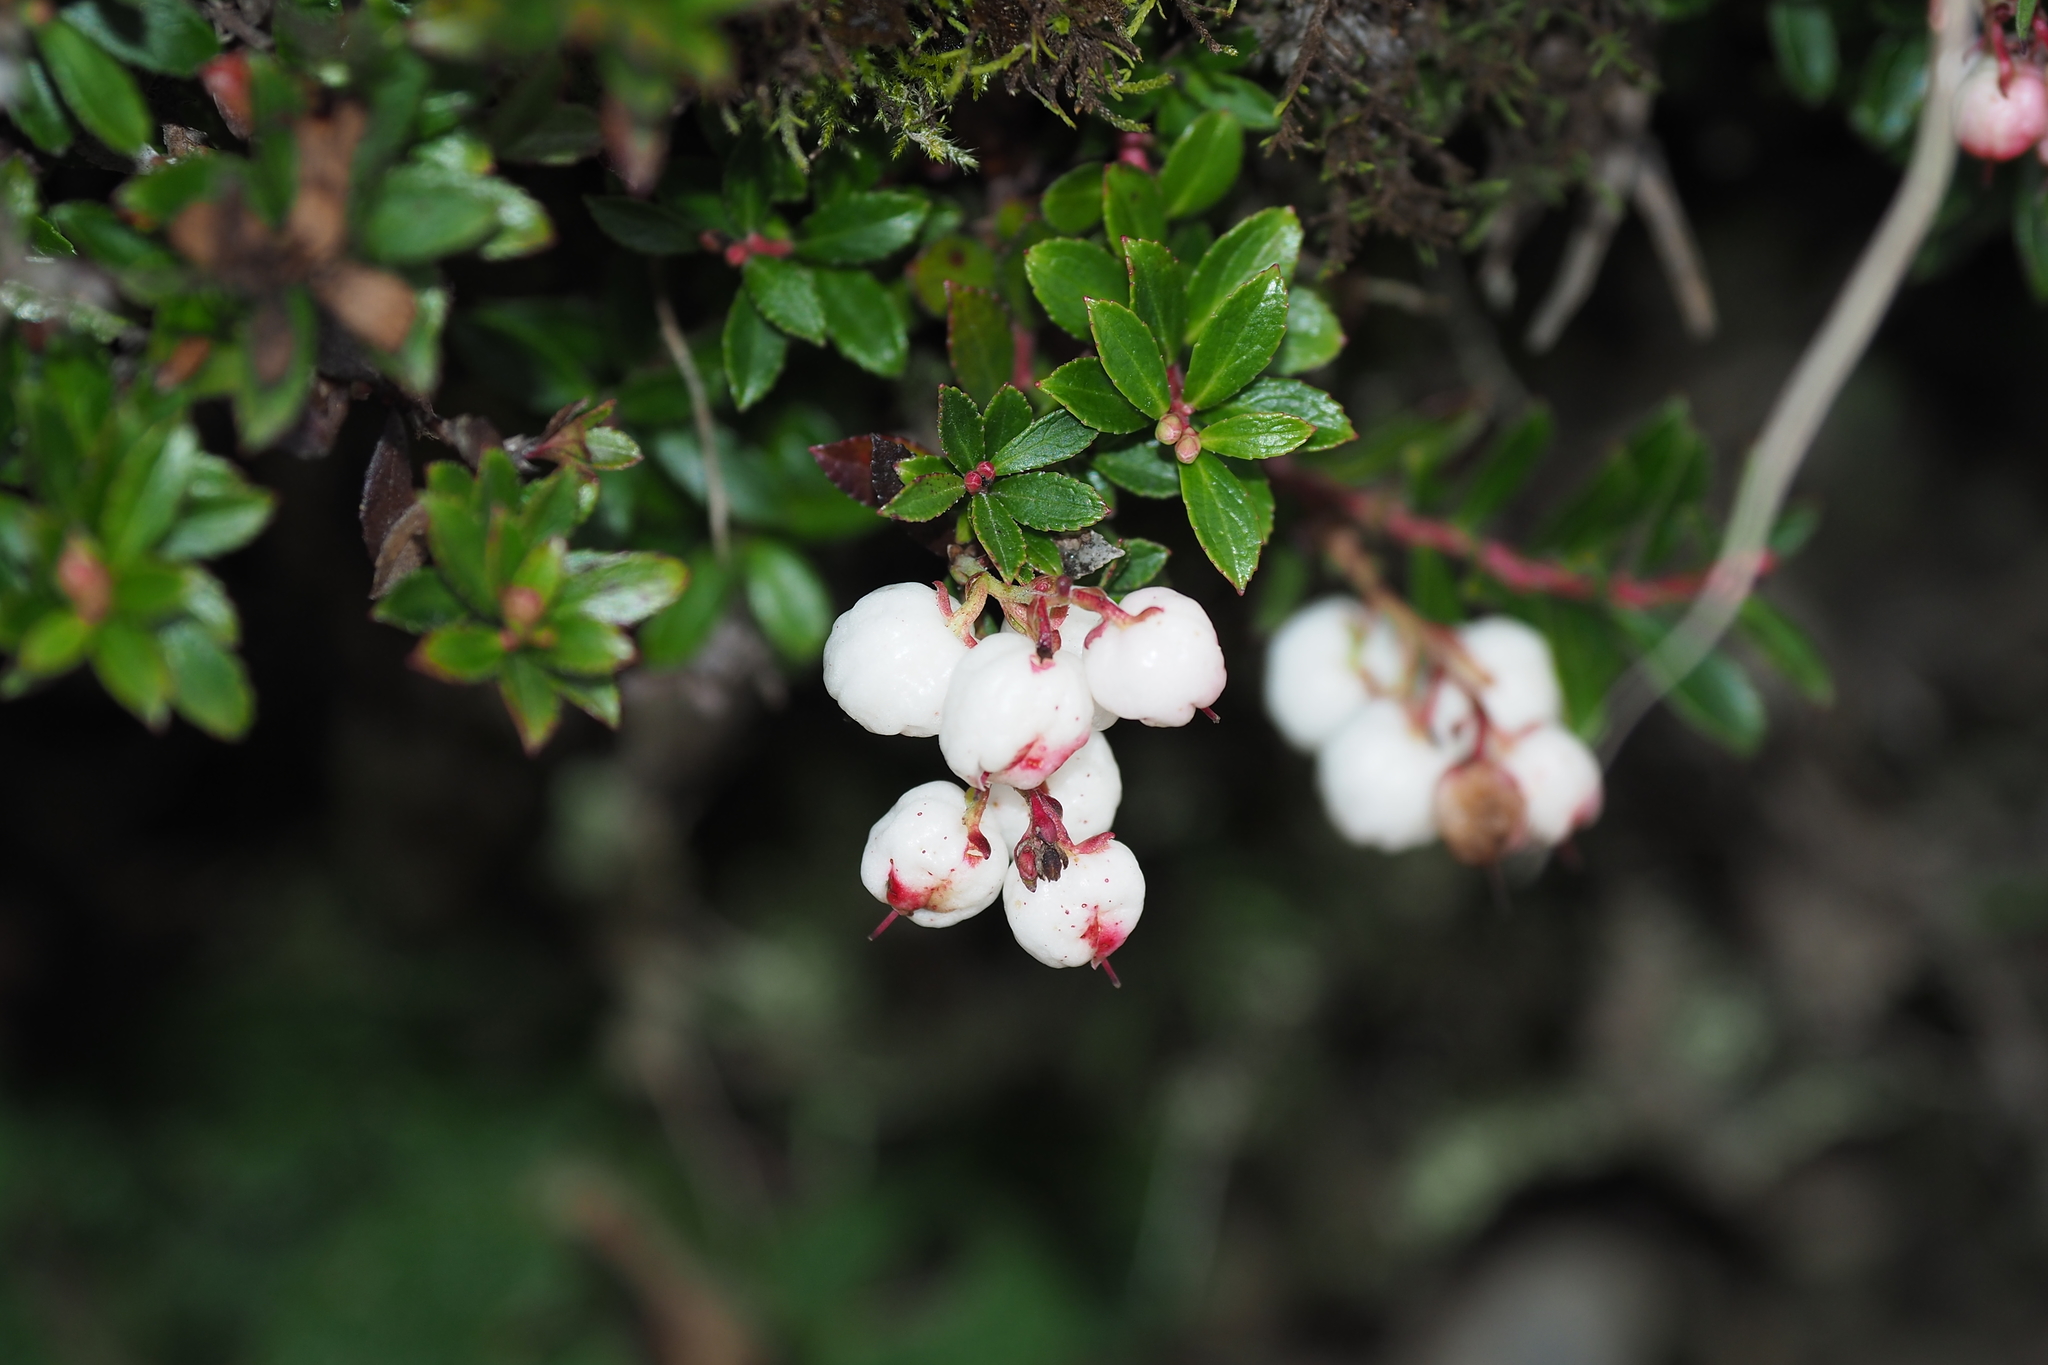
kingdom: Plantae
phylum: Tracheophyta
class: Magnoliopsida
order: Ericales
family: Ericaceae
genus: Gaultheria
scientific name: Gaultheria borneensis
